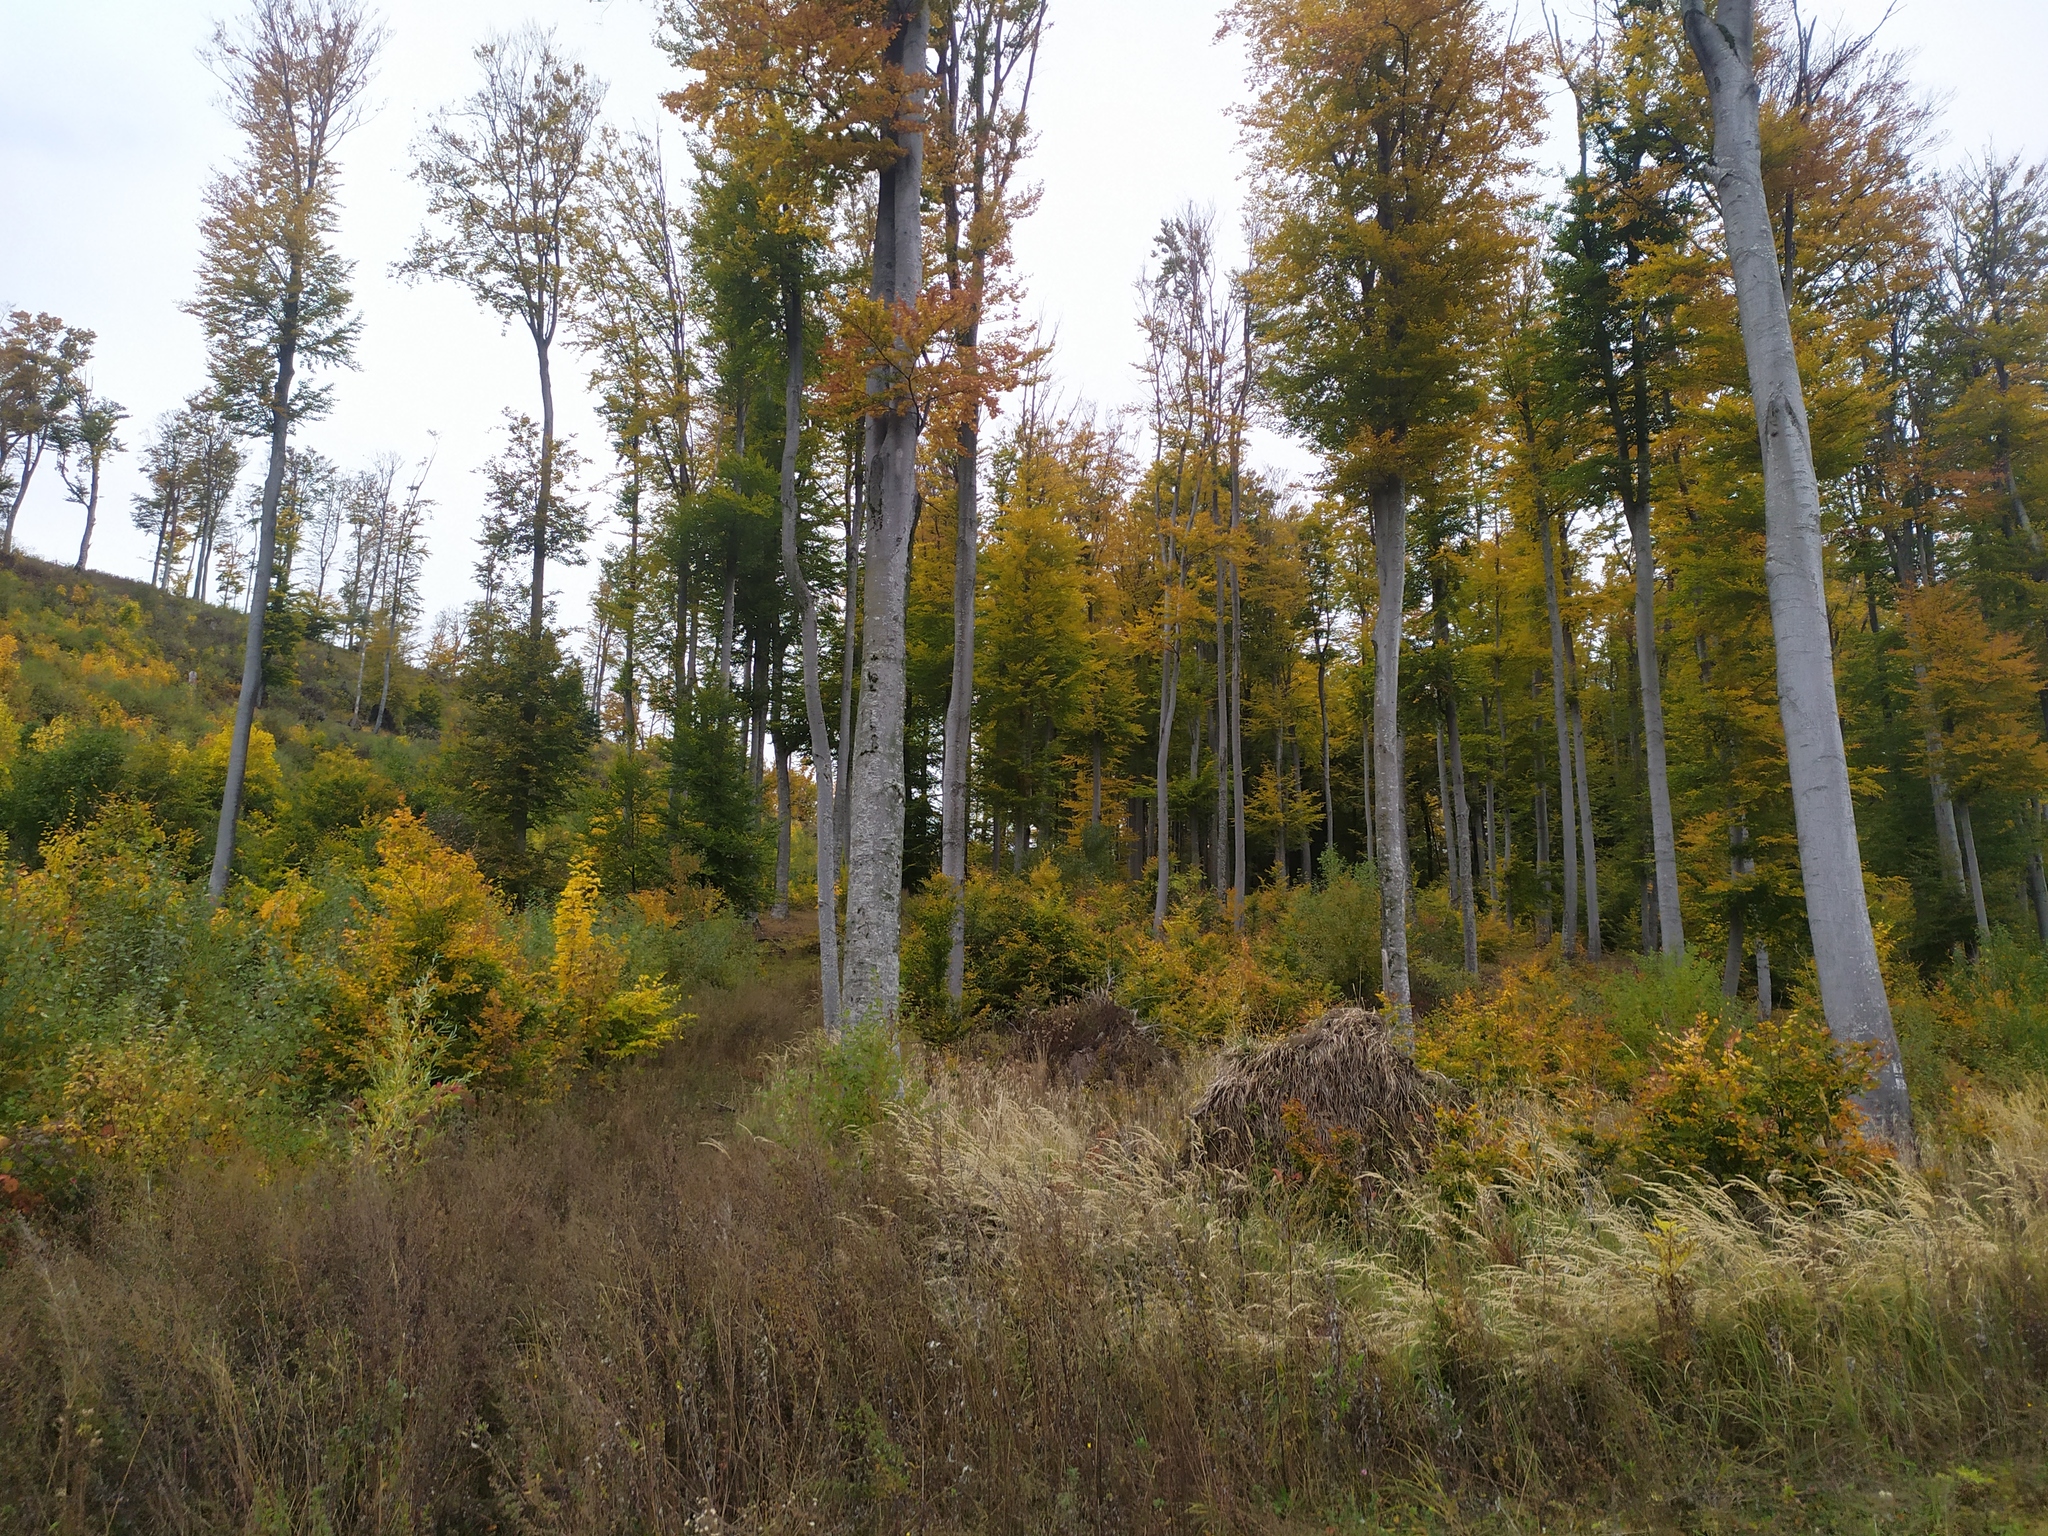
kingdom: Plantae
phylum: Tracheophyta
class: Magnoliopsida
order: Fagales
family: Fagaceae
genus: Fagus
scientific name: Fagus sylvatica
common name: Beech
